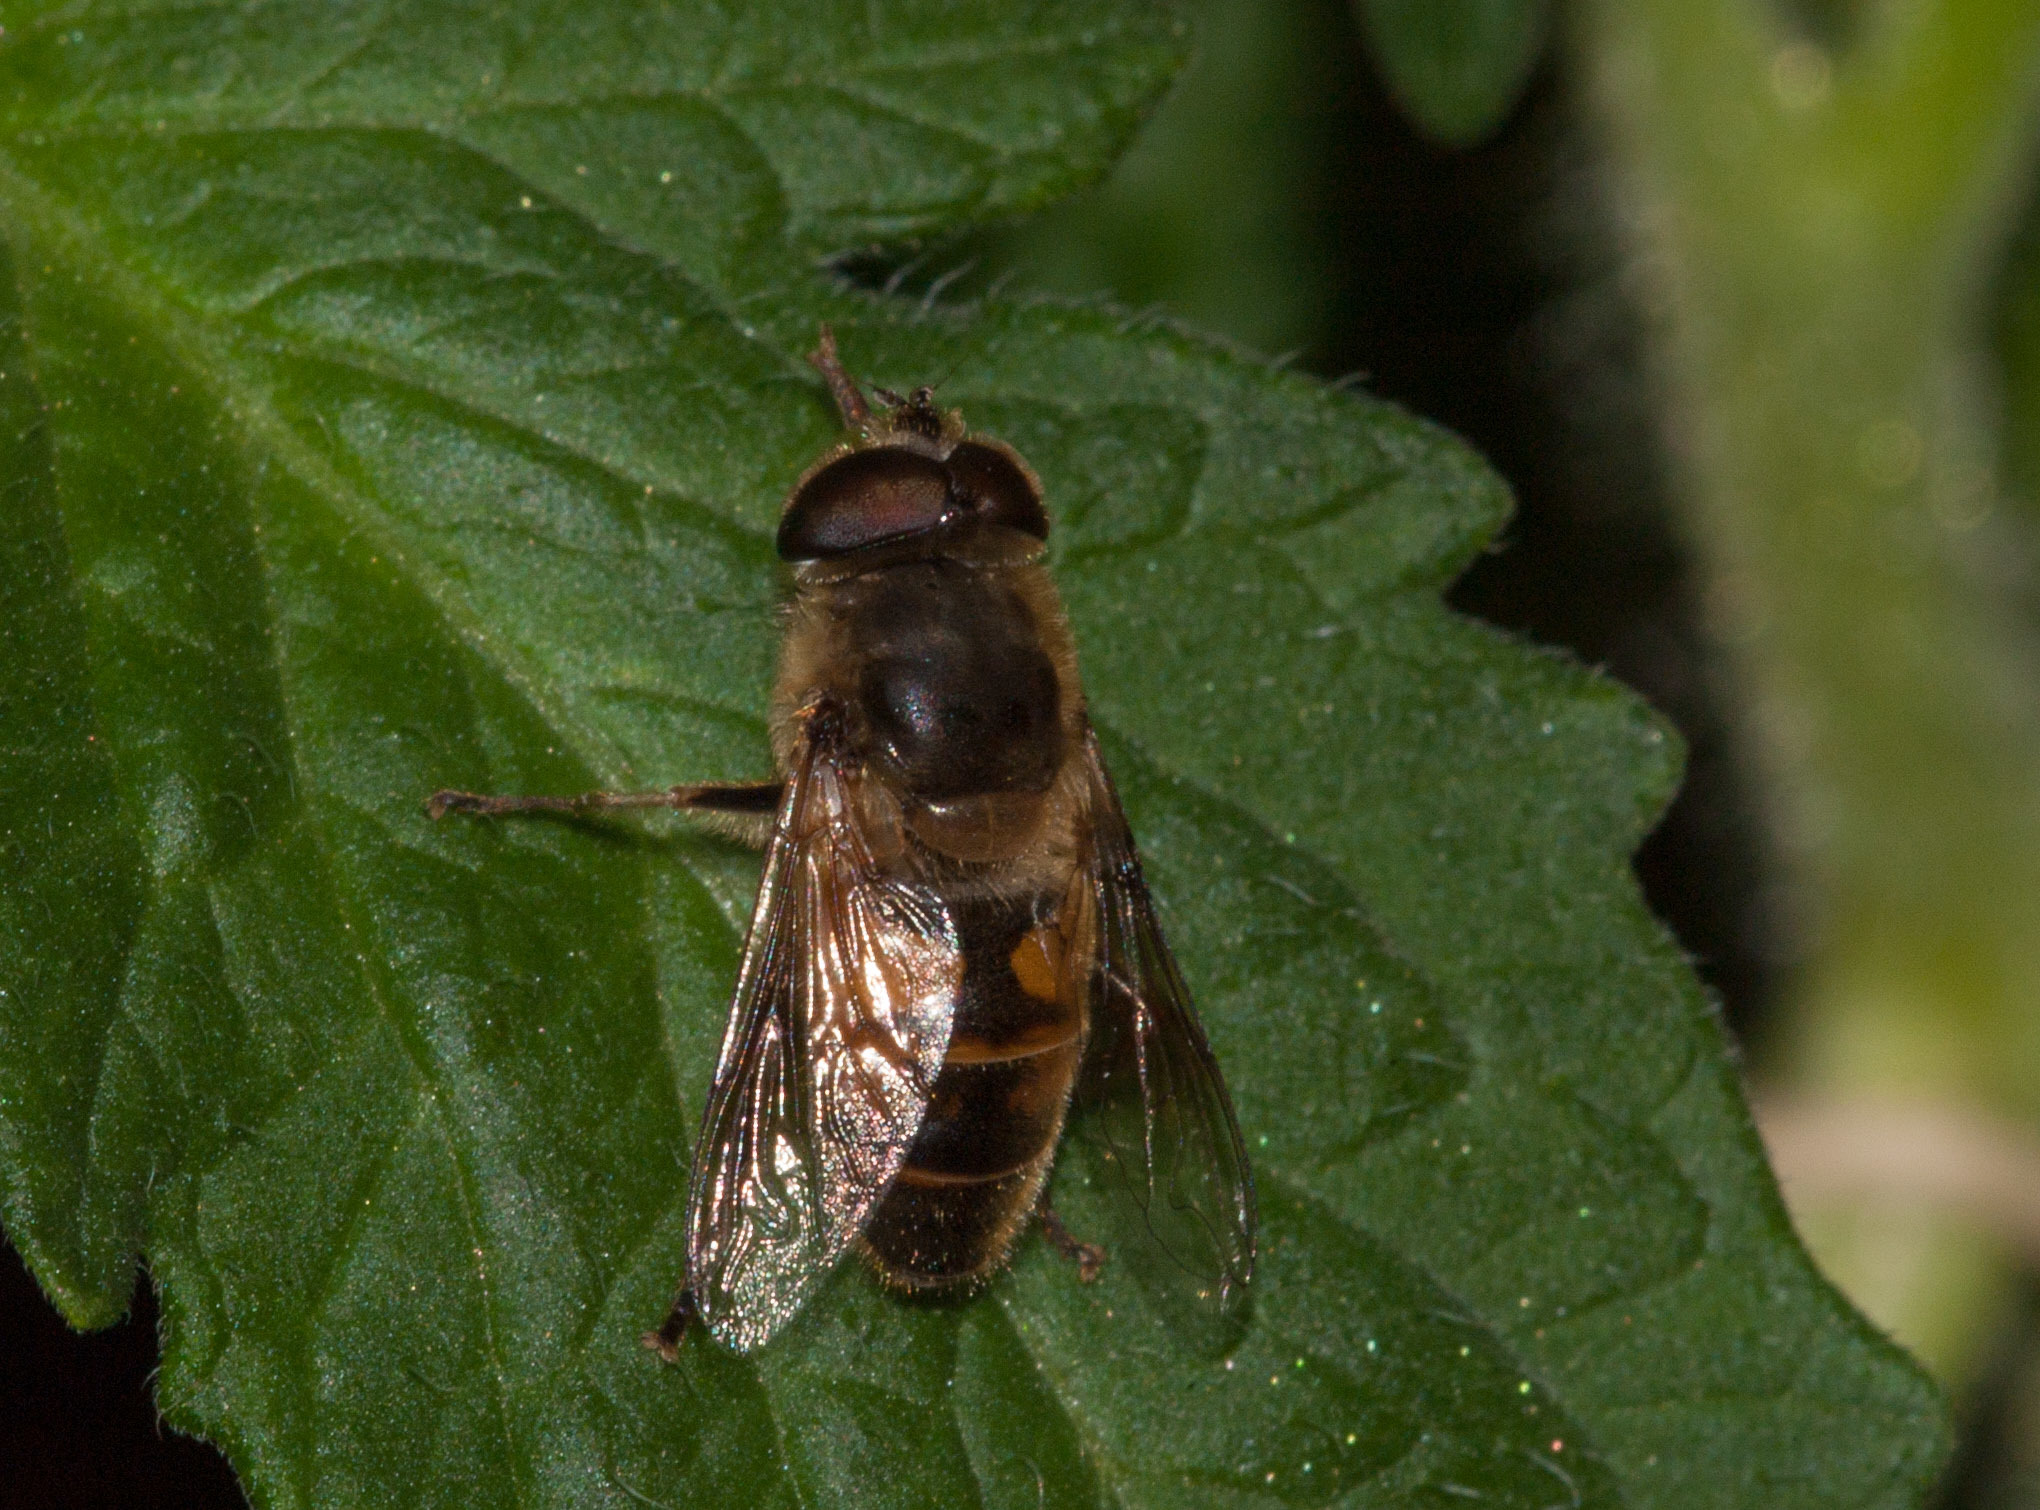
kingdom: Animalia
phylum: Arthropoda
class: Insecta
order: Diptera
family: Syrphidae
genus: Eristalis
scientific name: Eristalis tenax
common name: Drone fly
